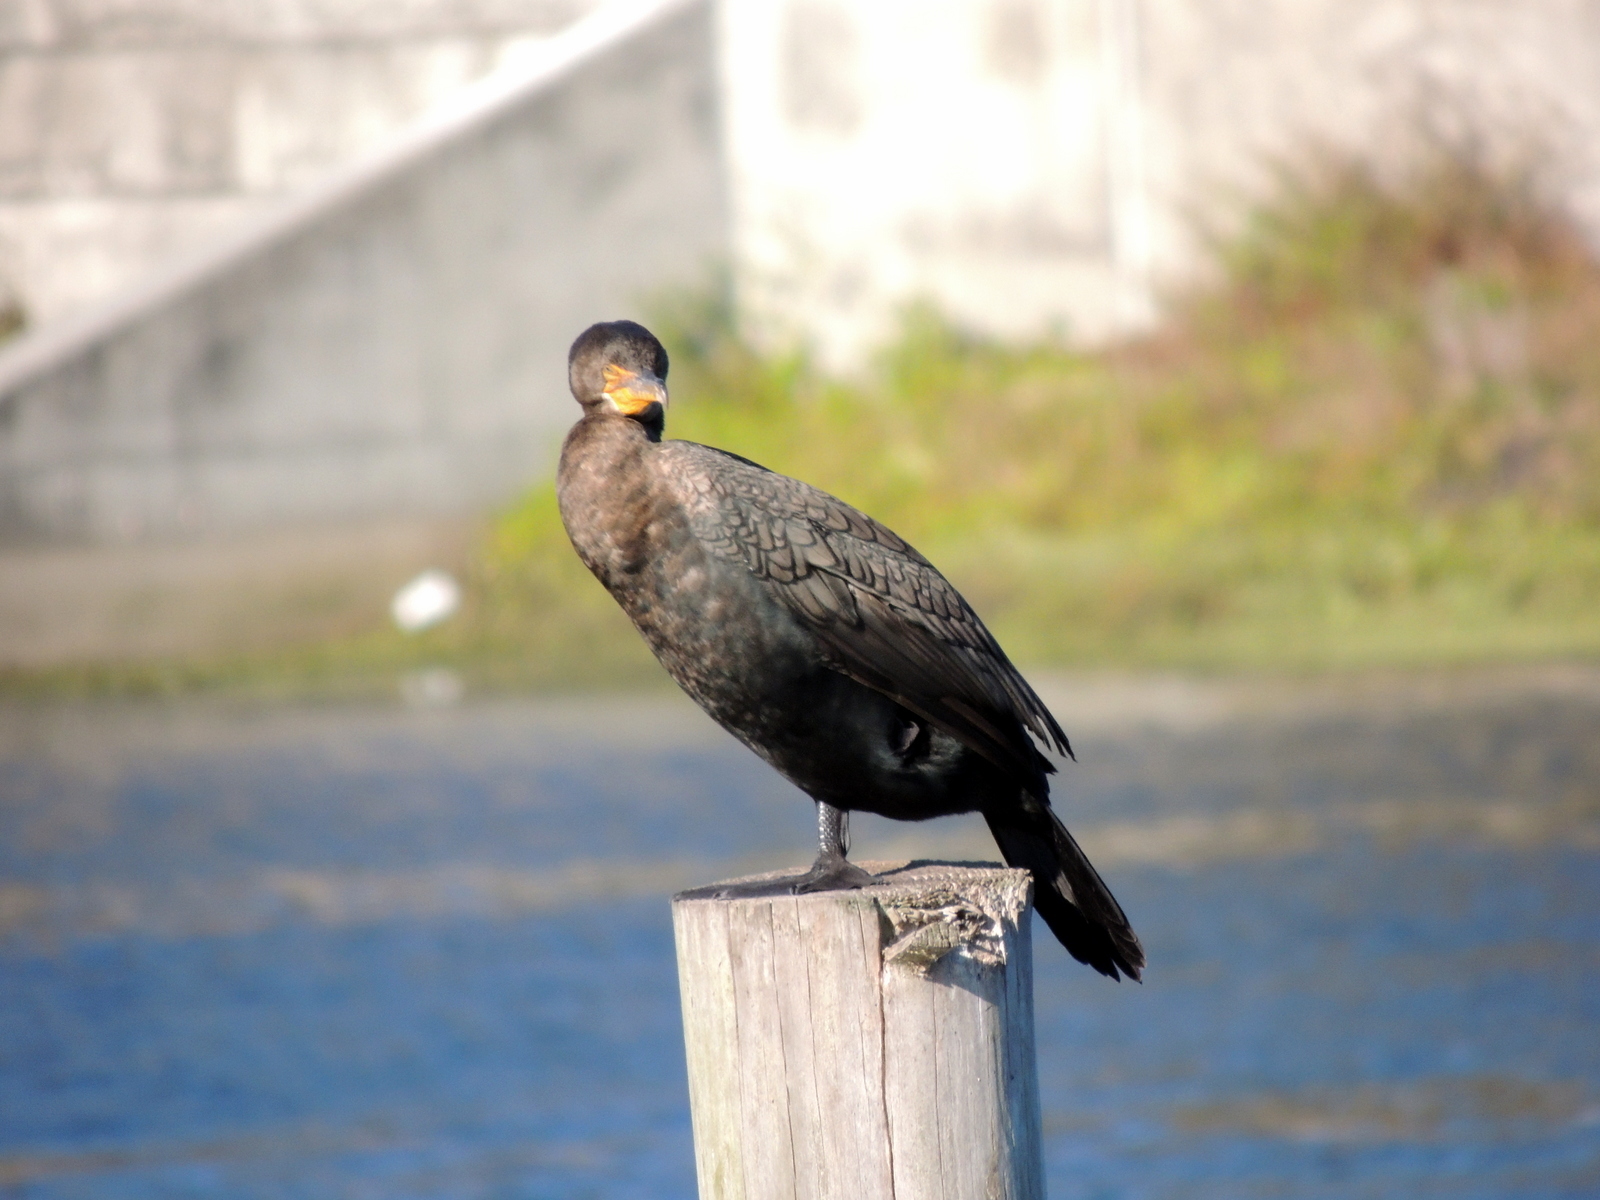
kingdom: Animalia
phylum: Chordata
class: Aves
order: Suliformes
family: Phalacrocoracidae
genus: Phalacrocorax
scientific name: Phalacrocorax auritus
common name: Double-crested cormorant
